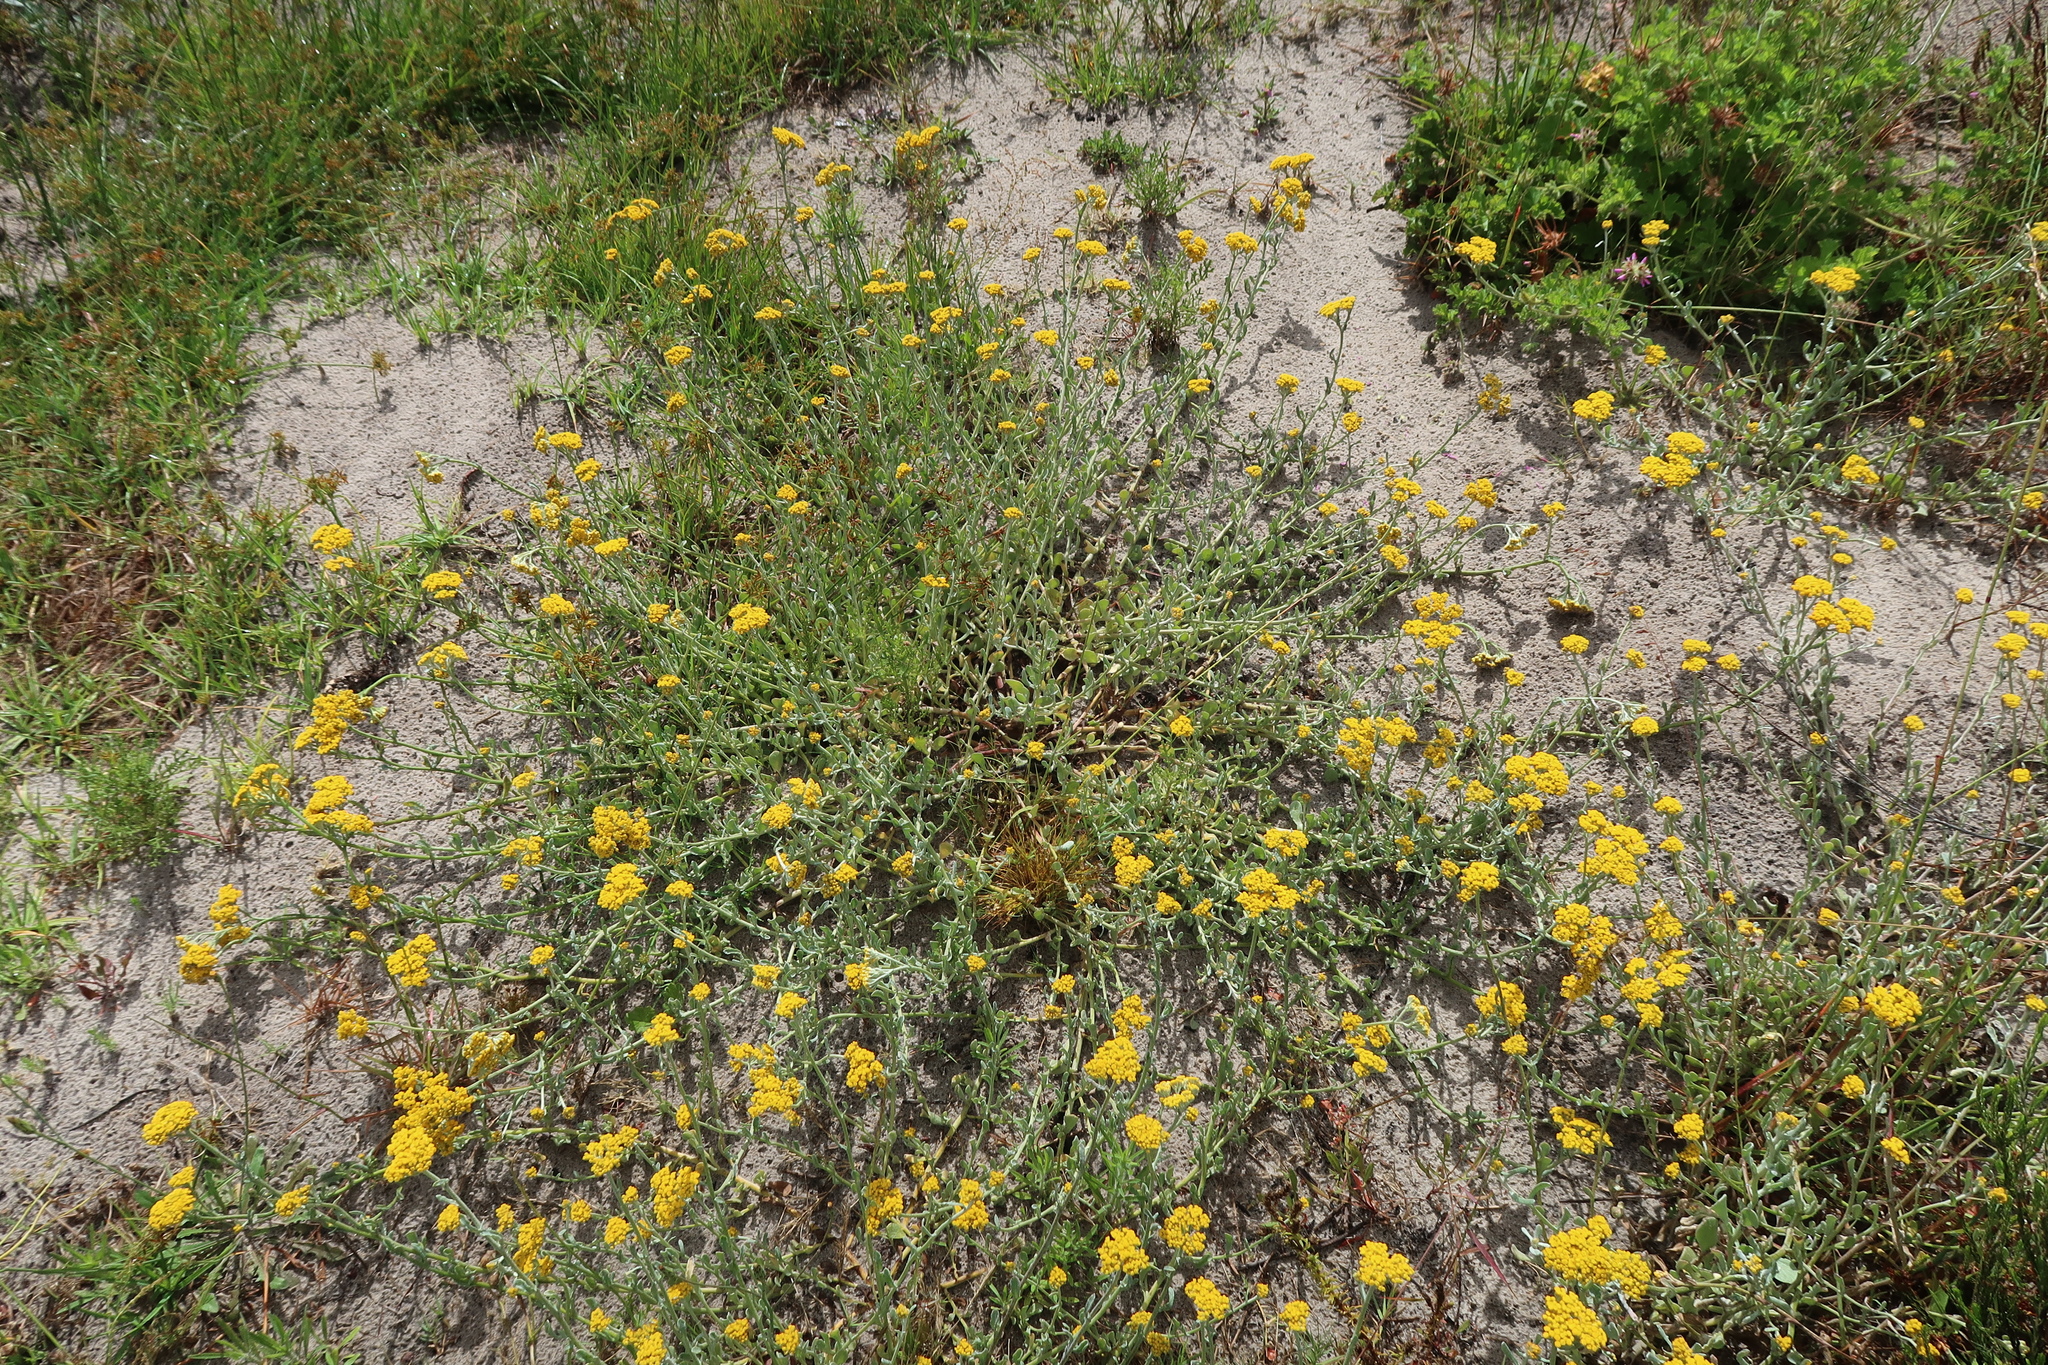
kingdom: Plantae
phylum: Tracheophyta
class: Magnoliopsida
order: Asterales
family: Asteraceae
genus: Helichrysum
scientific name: Helichrysum odoratissimum
